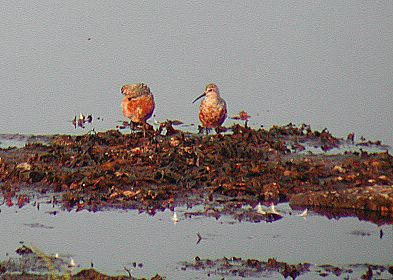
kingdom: Animalia
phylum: Chordata
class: Aves
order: Charadriiformes
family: Scolopacidae
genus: Calidris
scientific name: Calidris ferruginea
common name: Curlew sandpiper
